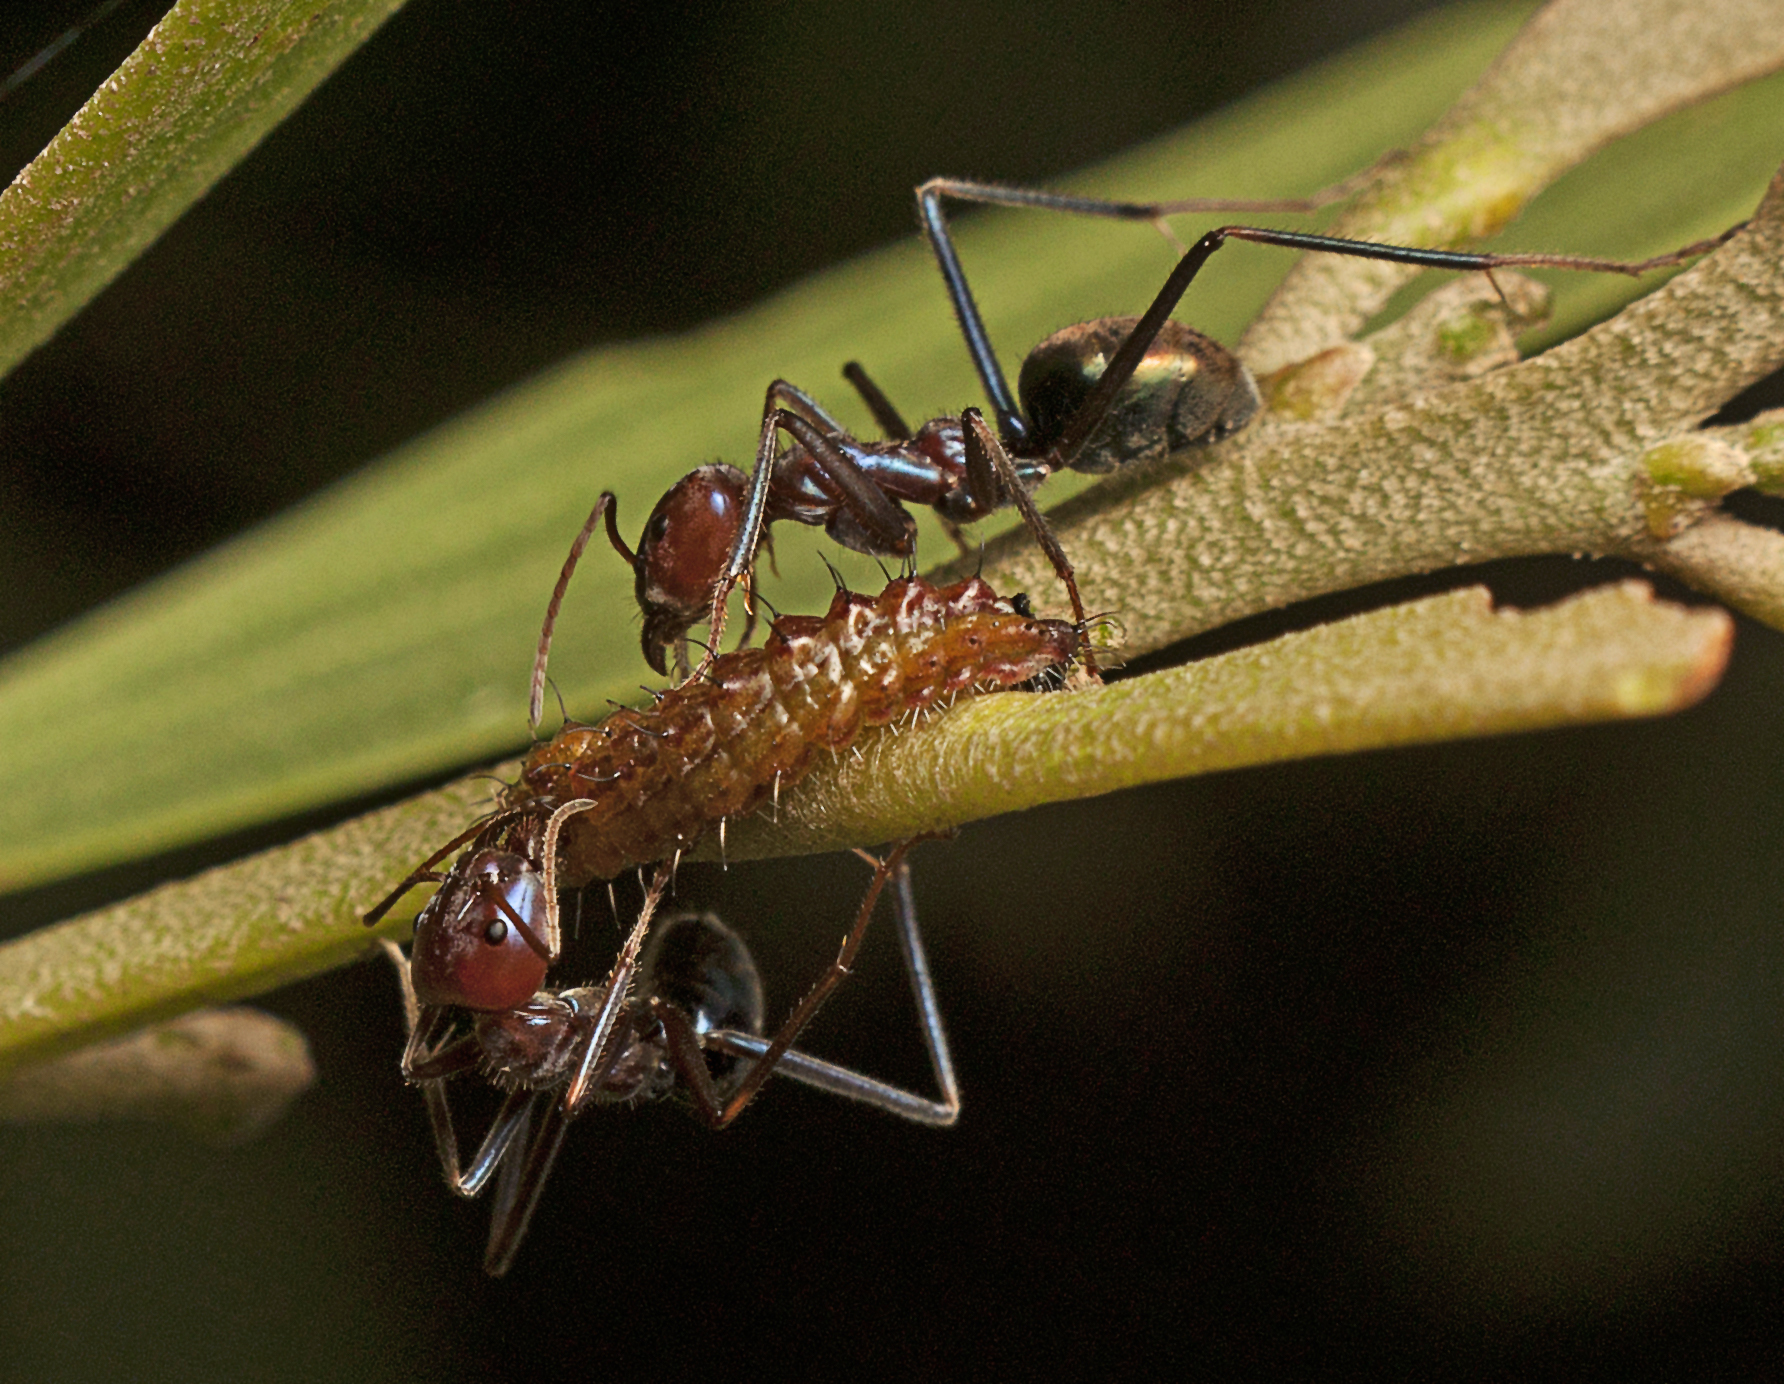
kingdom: Animalia
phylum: Arthropoda
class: Insecta
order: Lepidoptera
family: Lycaenidae
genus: Jalmenus
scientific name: Jalmenus ictinus
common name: Stencilled hairstreak
